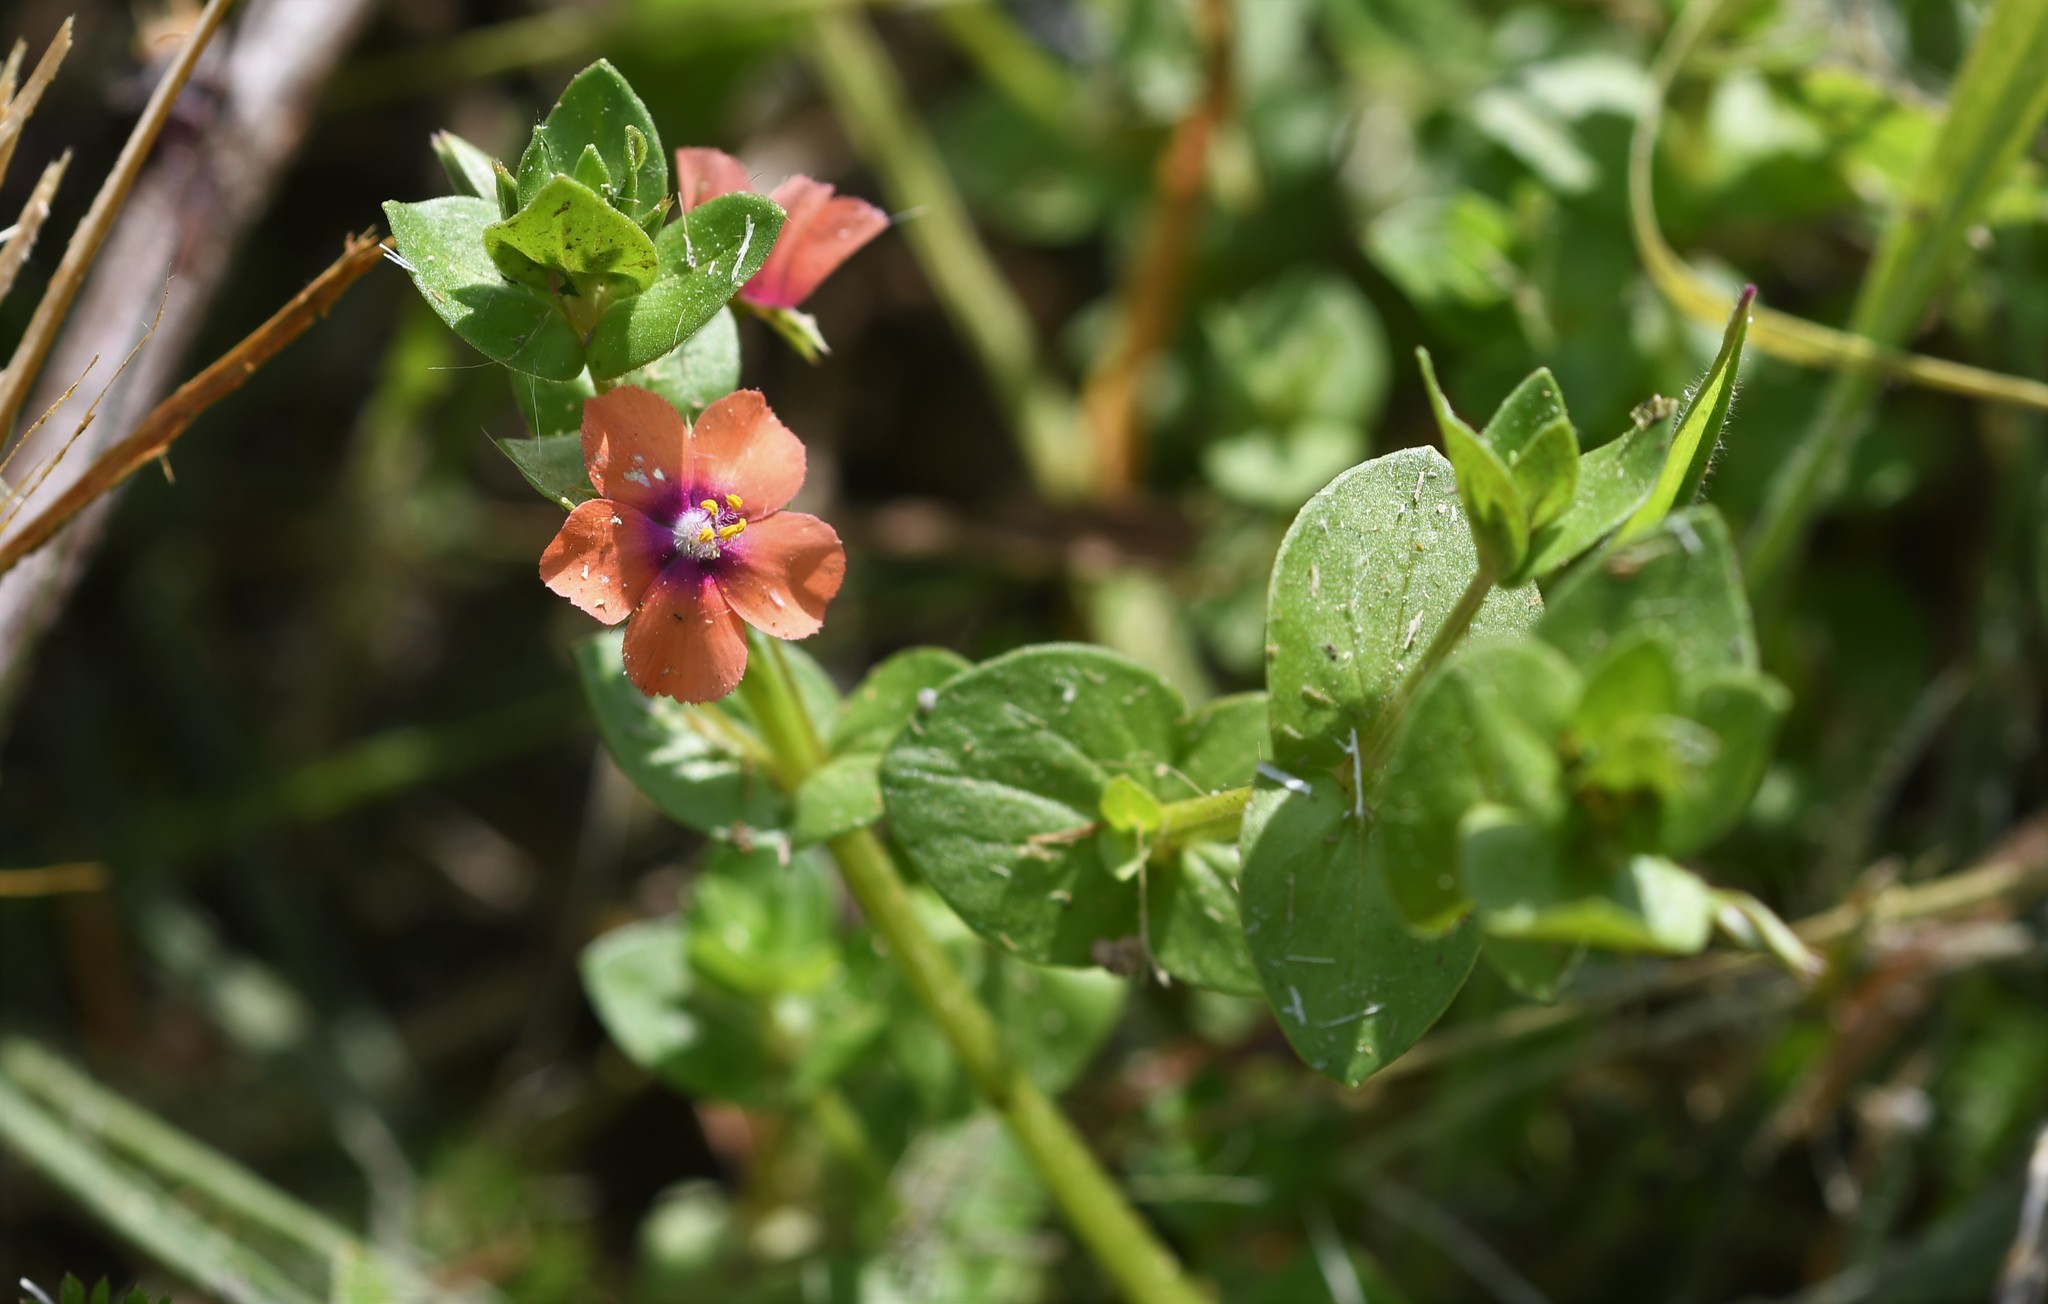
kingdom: Plantae
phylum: Tracheophyta
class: Magnoliopsida
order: Ericales
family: Primulaceae
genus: Lysimachia
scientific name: Lysimachia arvensis
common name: Scarlet pimpernel
